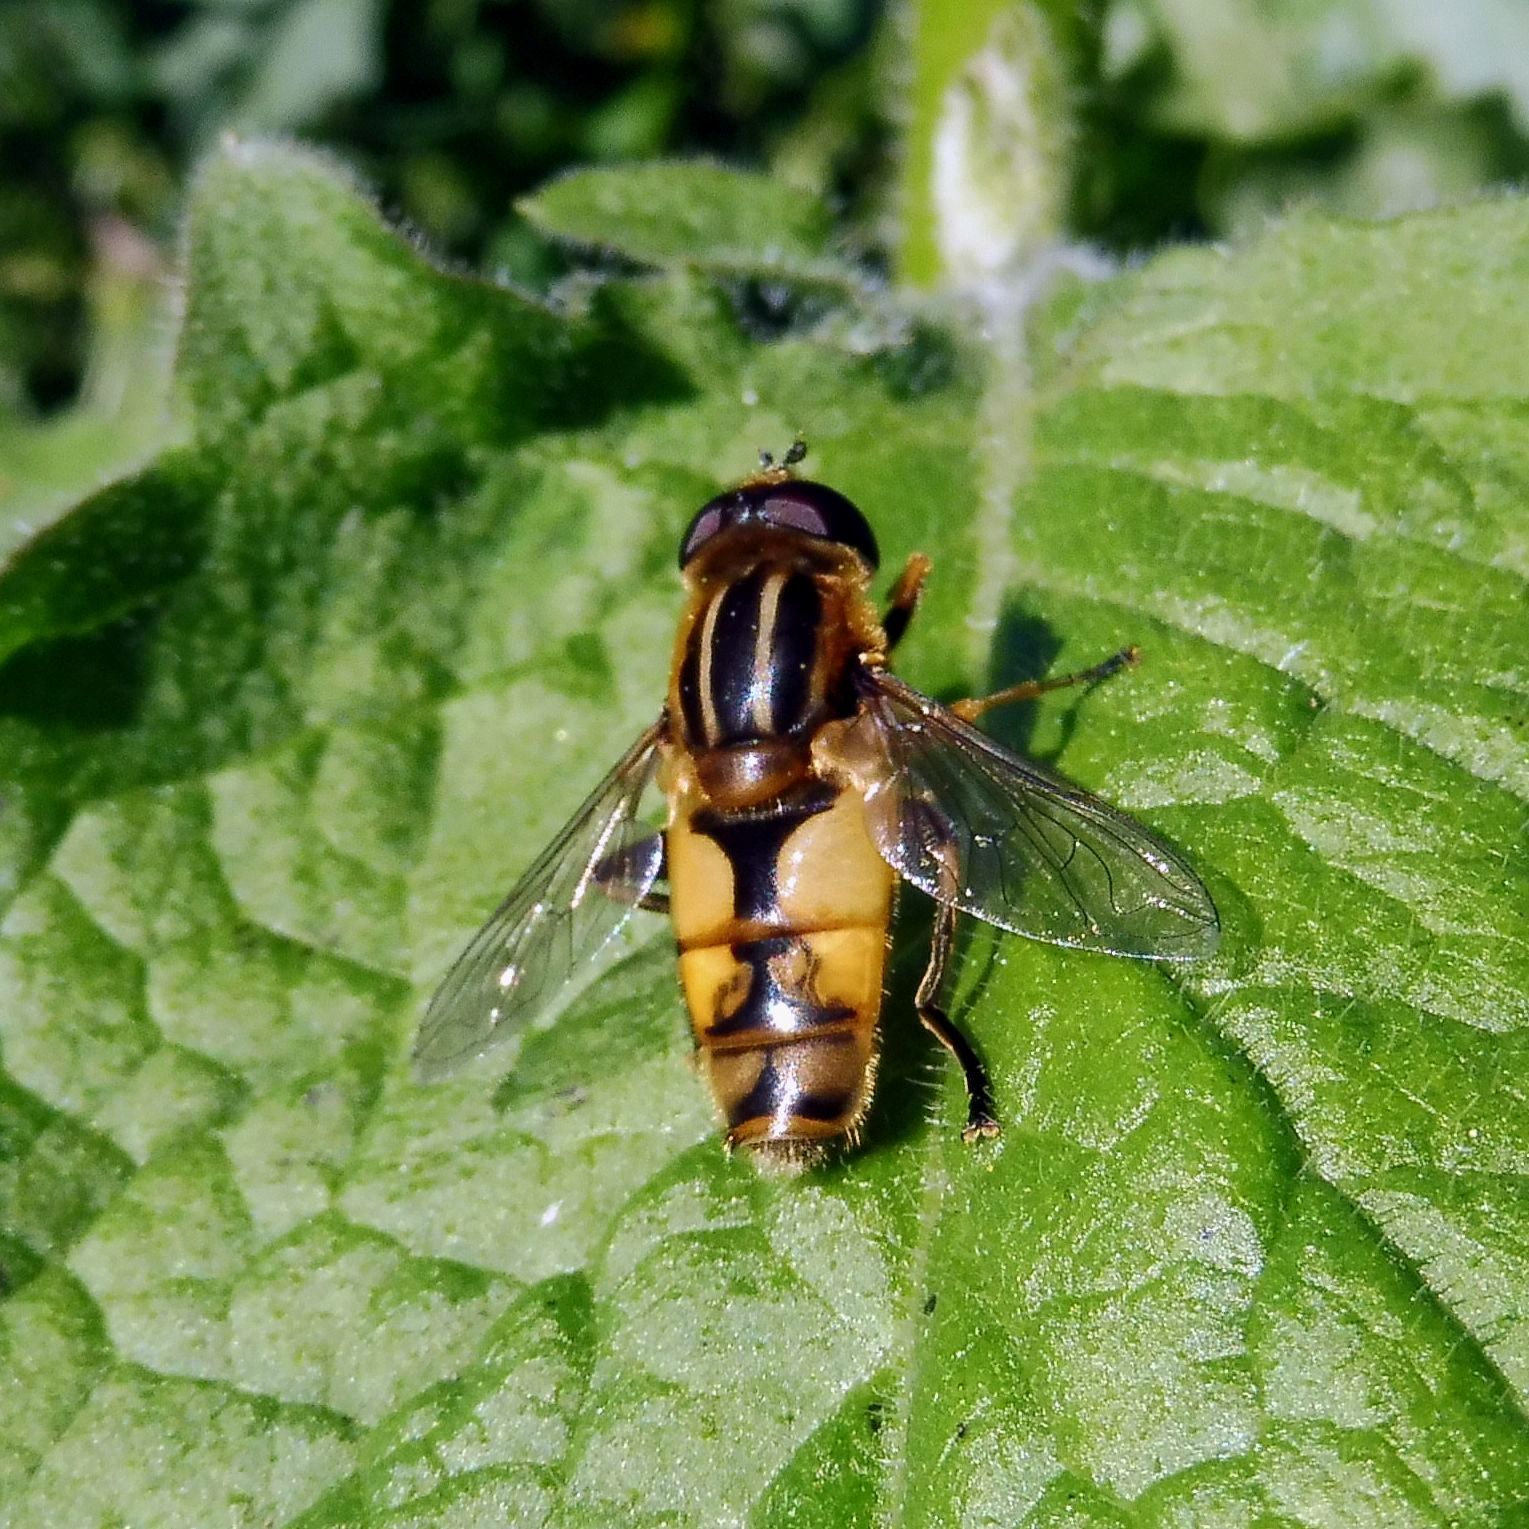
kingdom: Animalia
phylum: Arthropoda
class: Insecta
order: Diptera
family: Syrphidae
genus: Helophilus
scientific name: Helophilus hybridus
